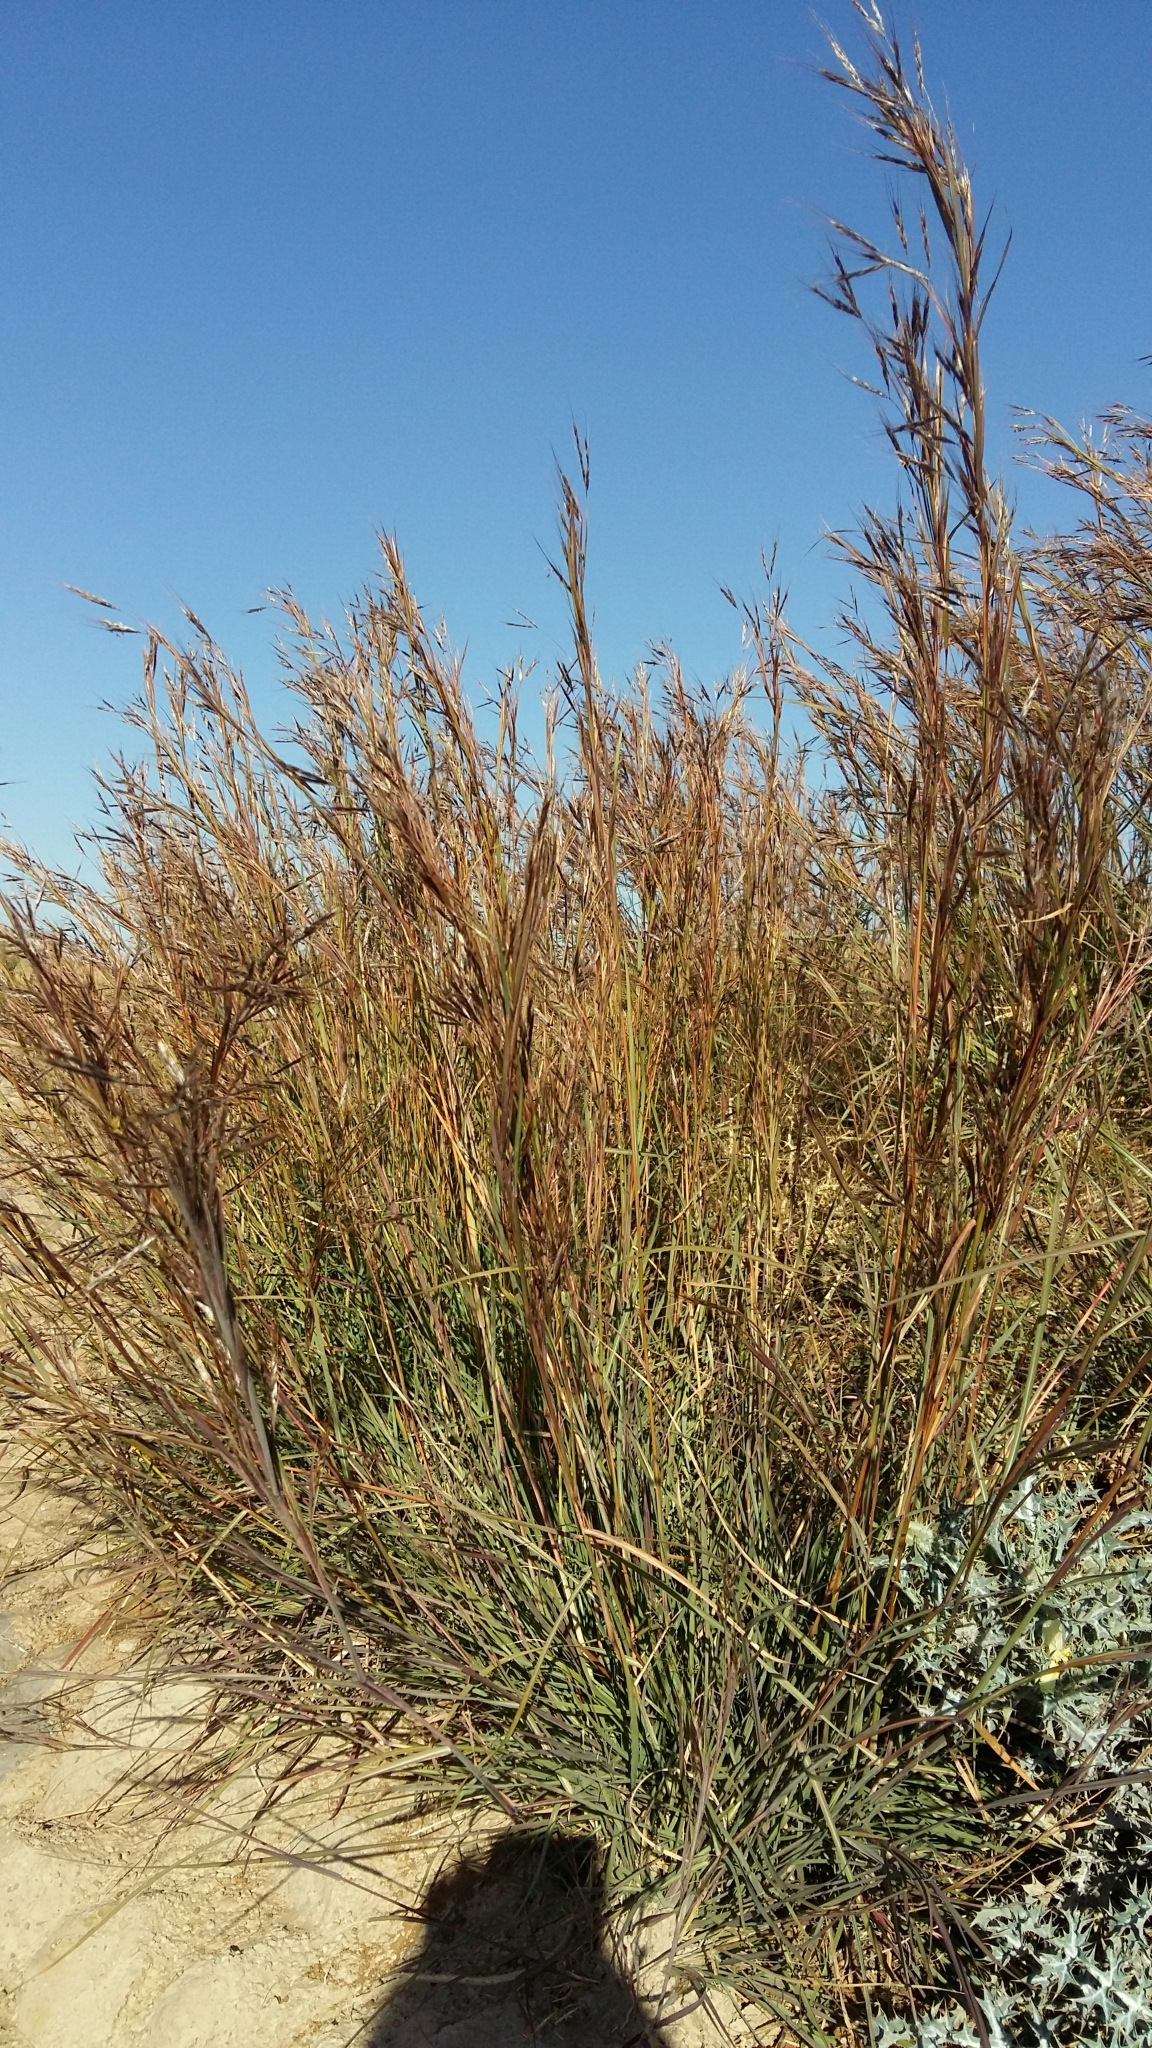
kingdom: Plantae
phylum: Tracheophyta
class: Liliopsida
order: Poales
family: Poaceae
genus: Hyparrhenia
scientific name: Hyparrhenia hirta
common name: Thatching grass
